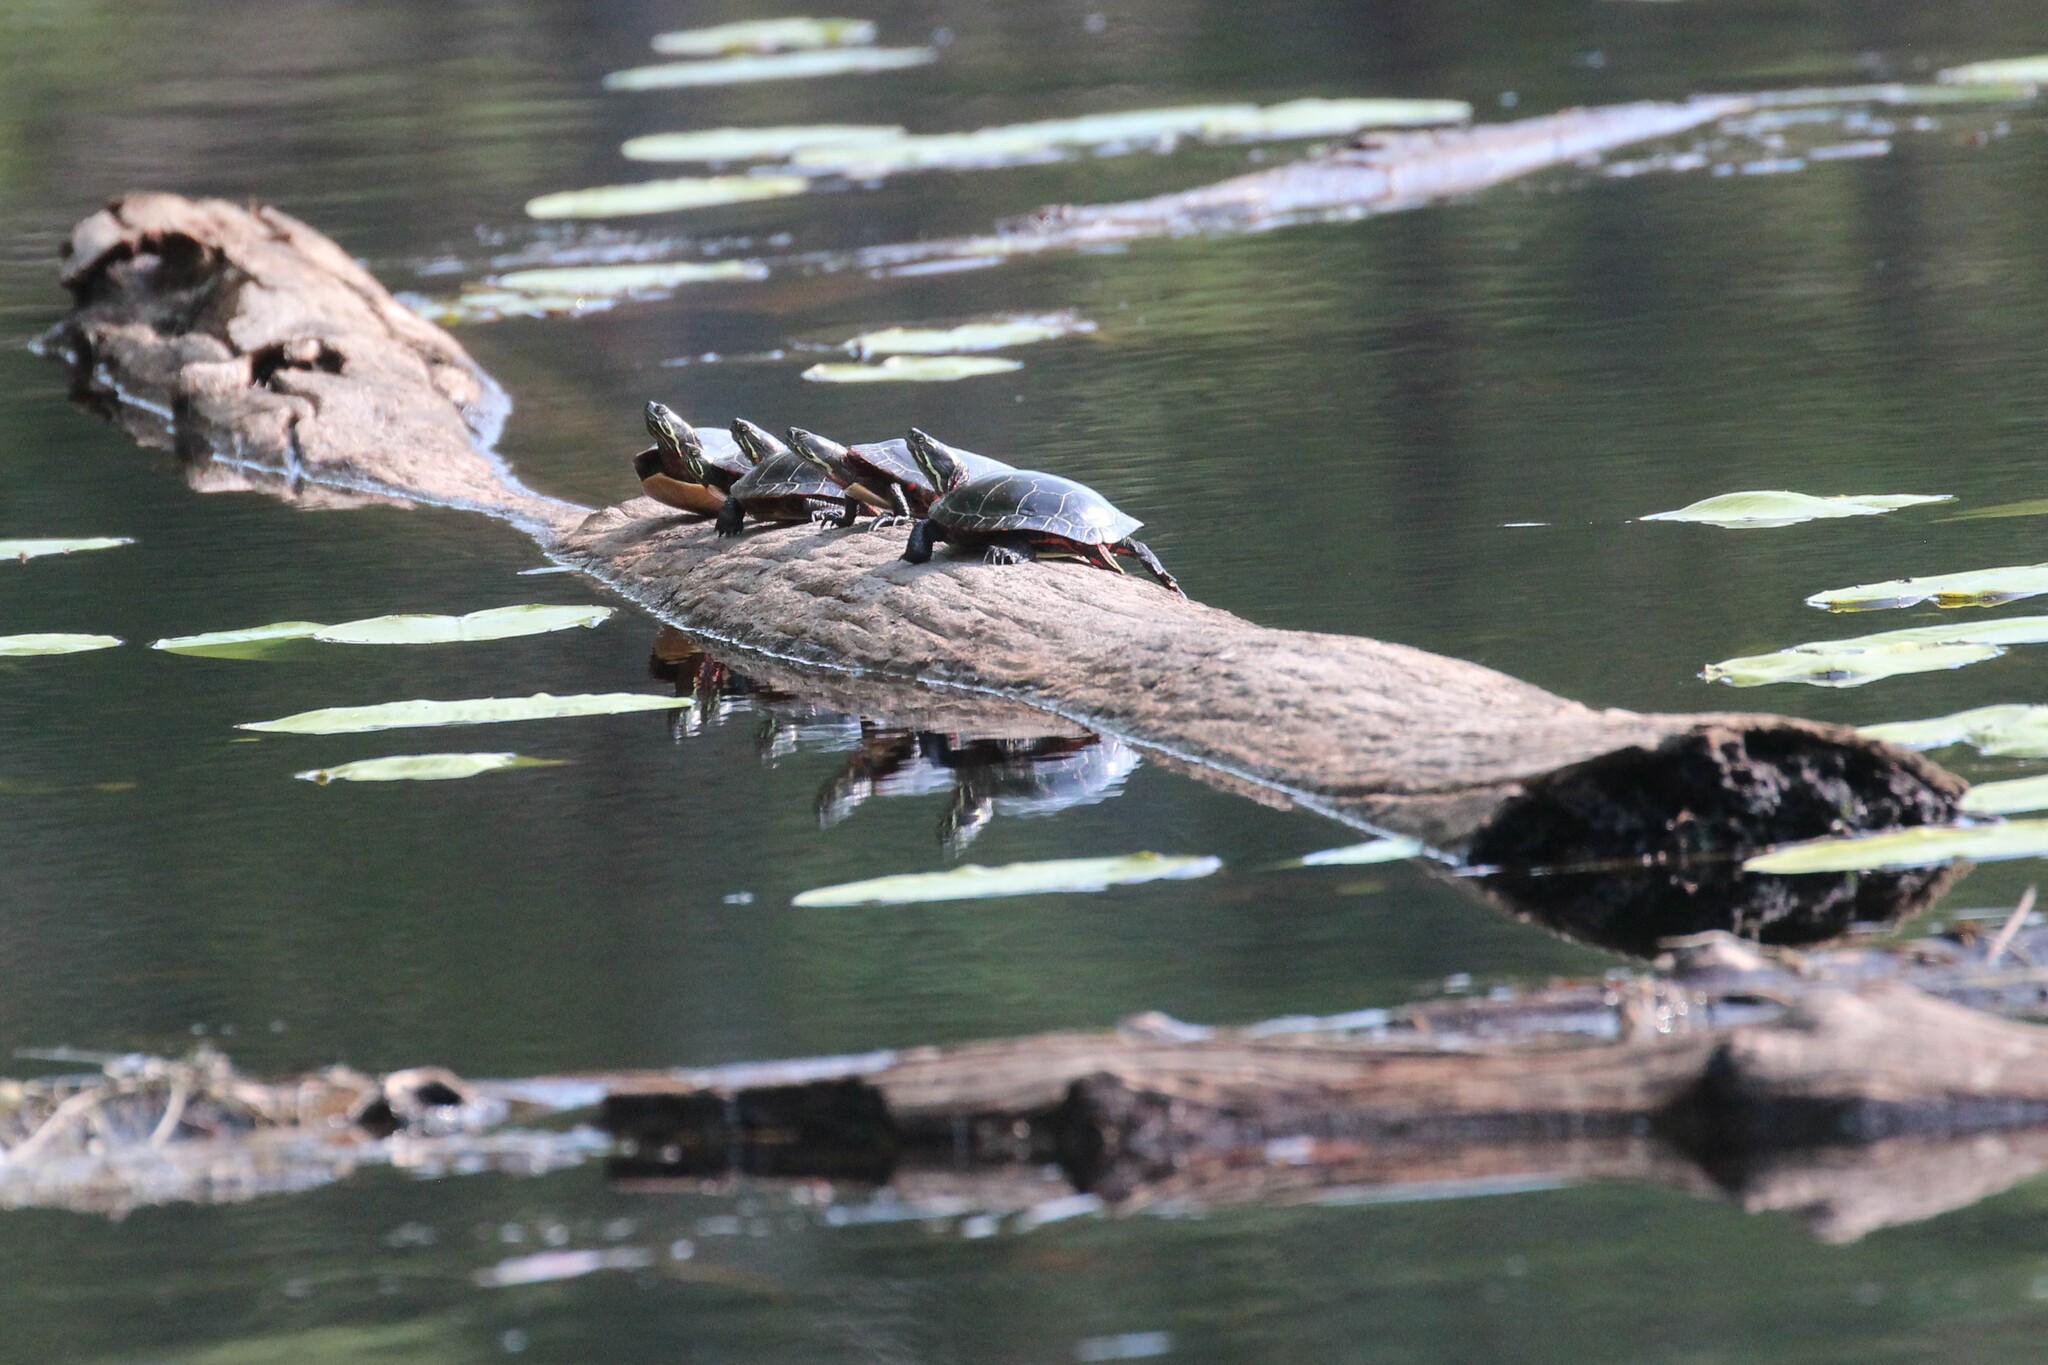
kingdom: Animalia
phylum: Chordata
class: Testudines
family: Emydidae
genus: Chrysemys
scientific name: Chrysemys picta
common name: Painted turtle
